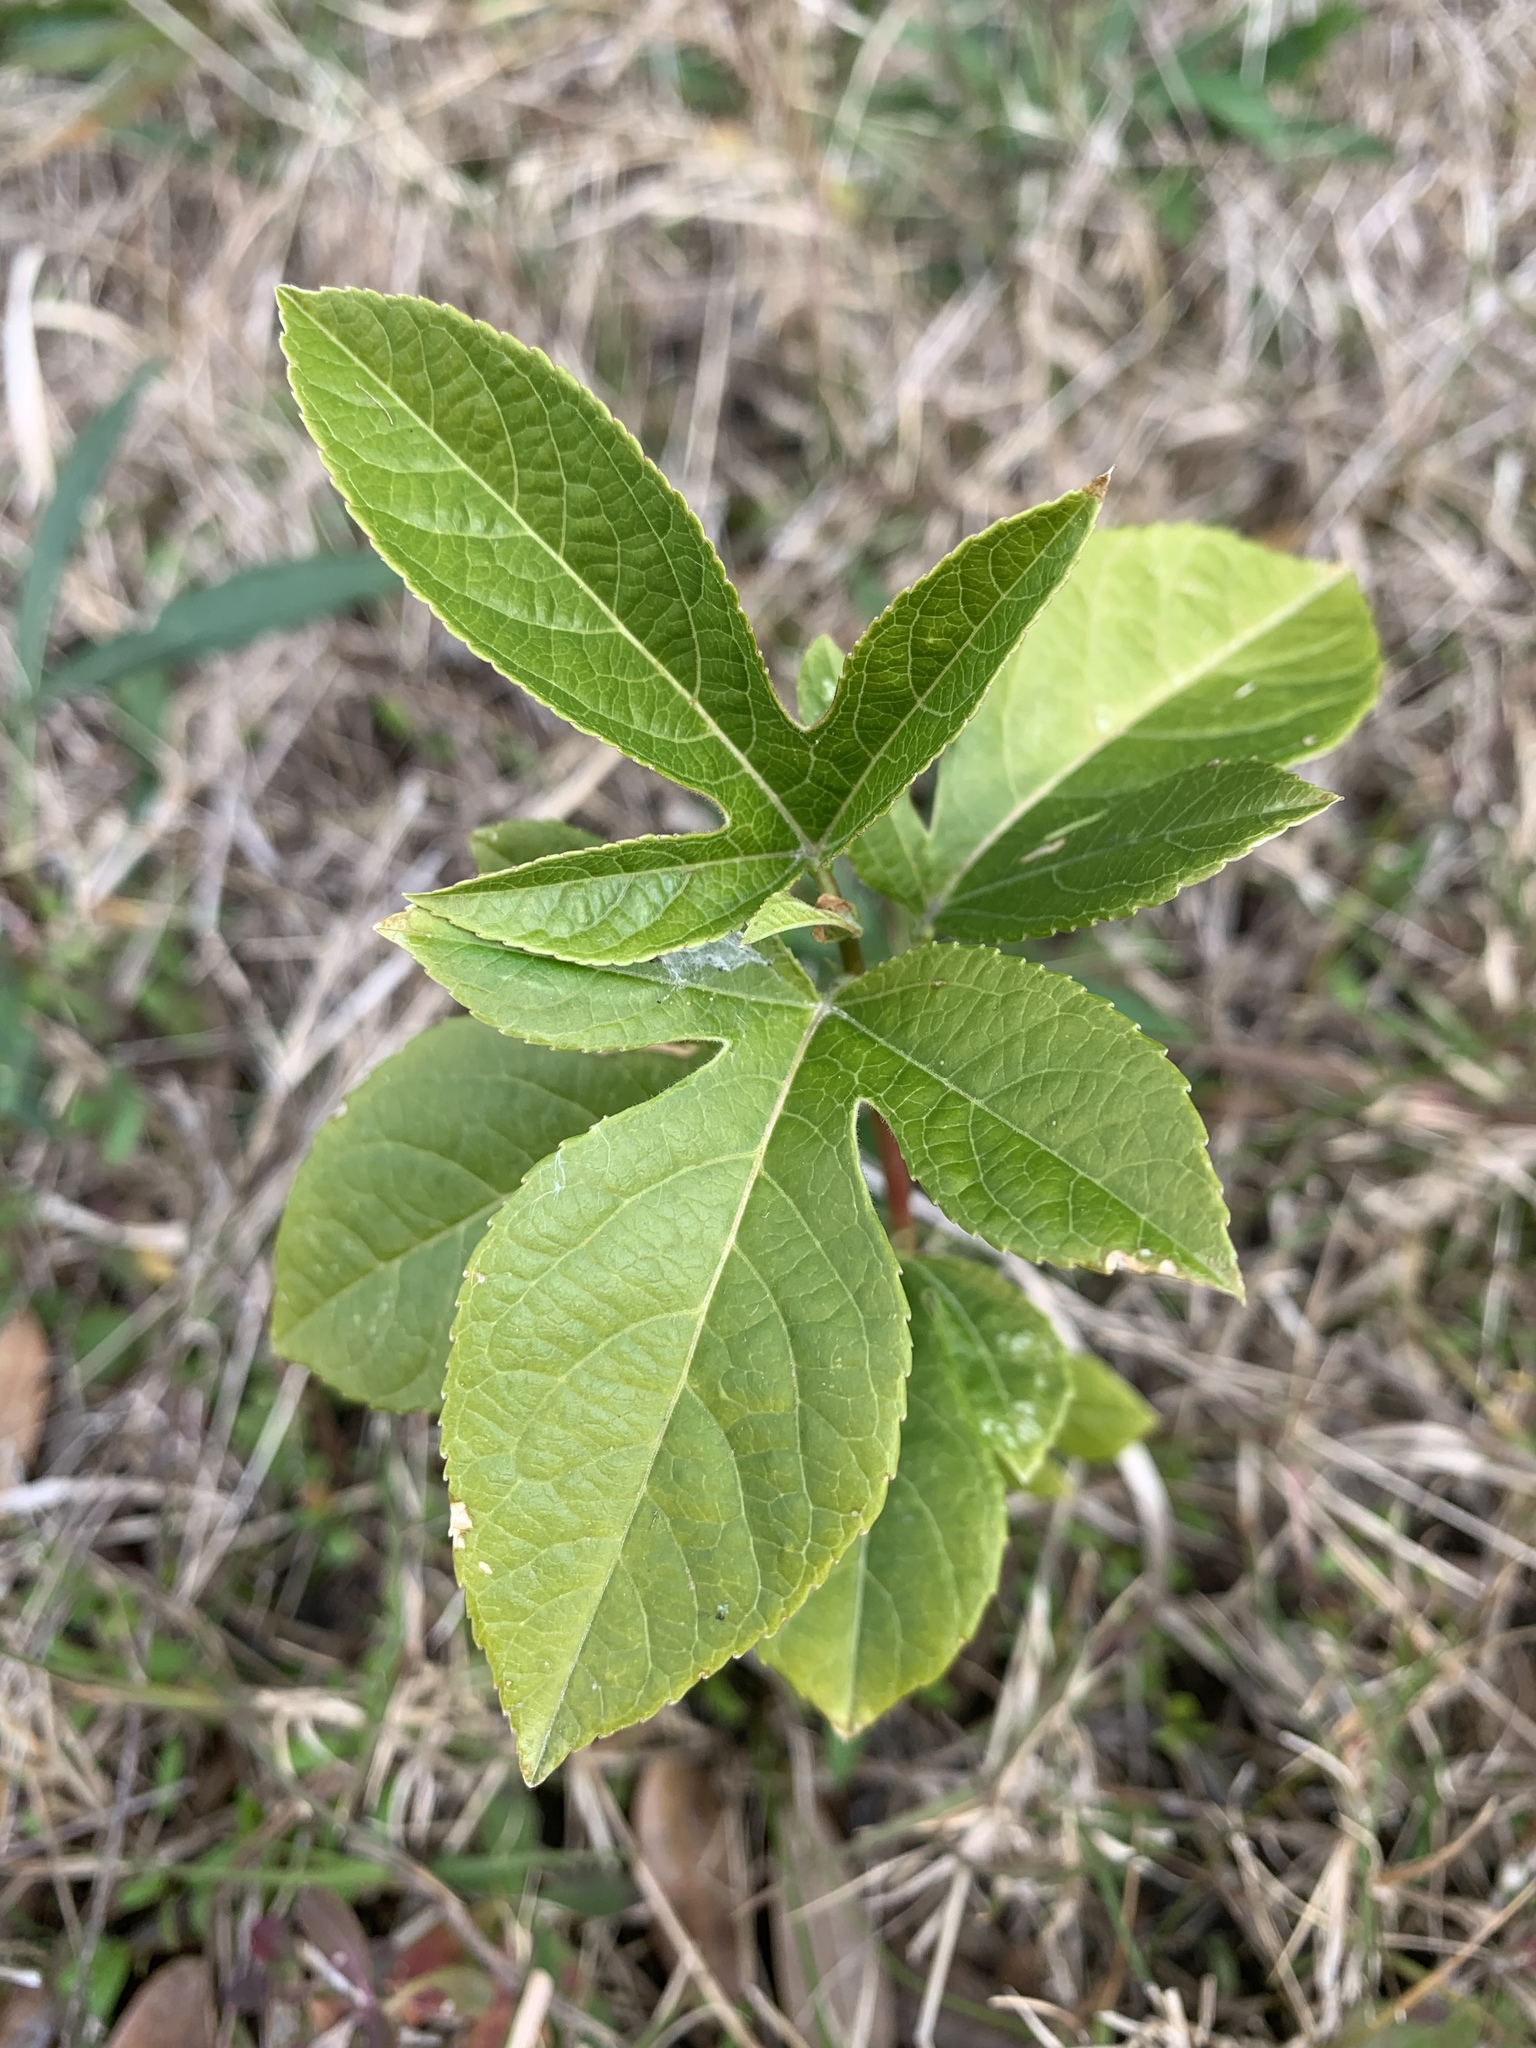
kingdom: Plantae
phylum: Tracheophyta
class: Magnoliopsida
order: Malpighiales
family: Passifloraceae
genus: Passiflora
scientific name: Passiflora incarnata
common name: Apricot-vine
